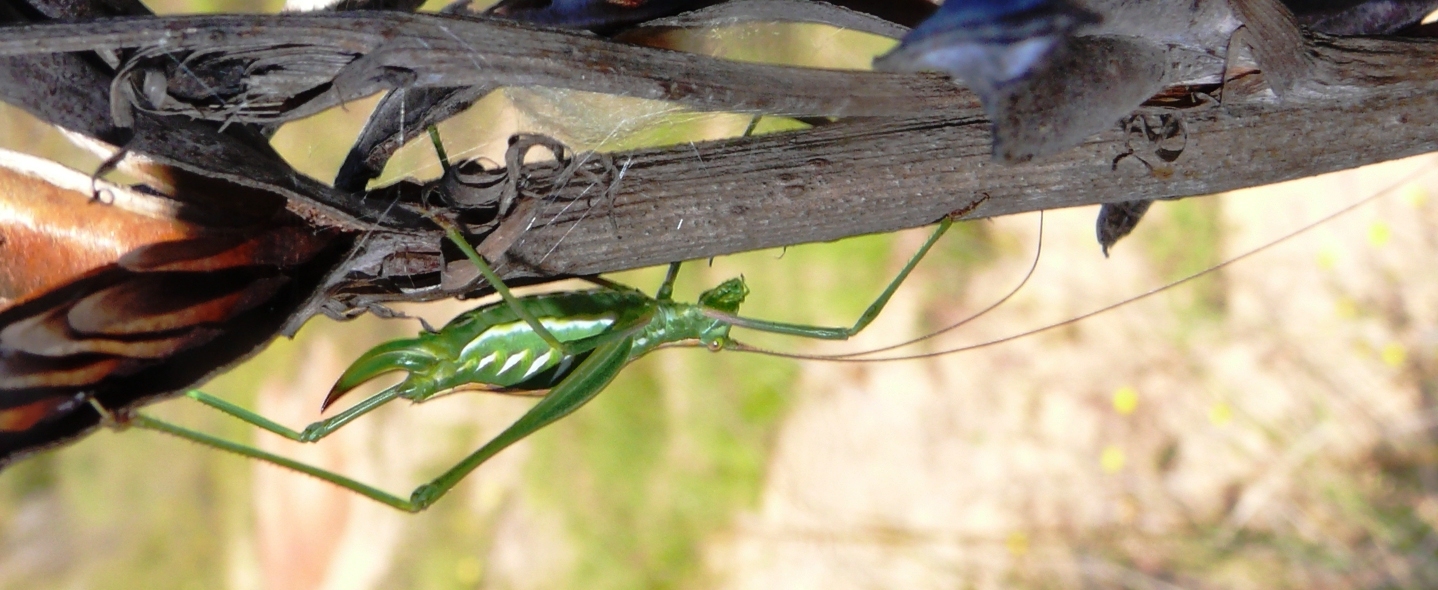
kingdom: Animalia
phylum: Arthropoda
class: Insecta
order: Orthoptera
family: Tettigoniidae
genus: Brinckiella
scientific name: Brinckiella wilsoni
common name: Wilson's winter katydid
